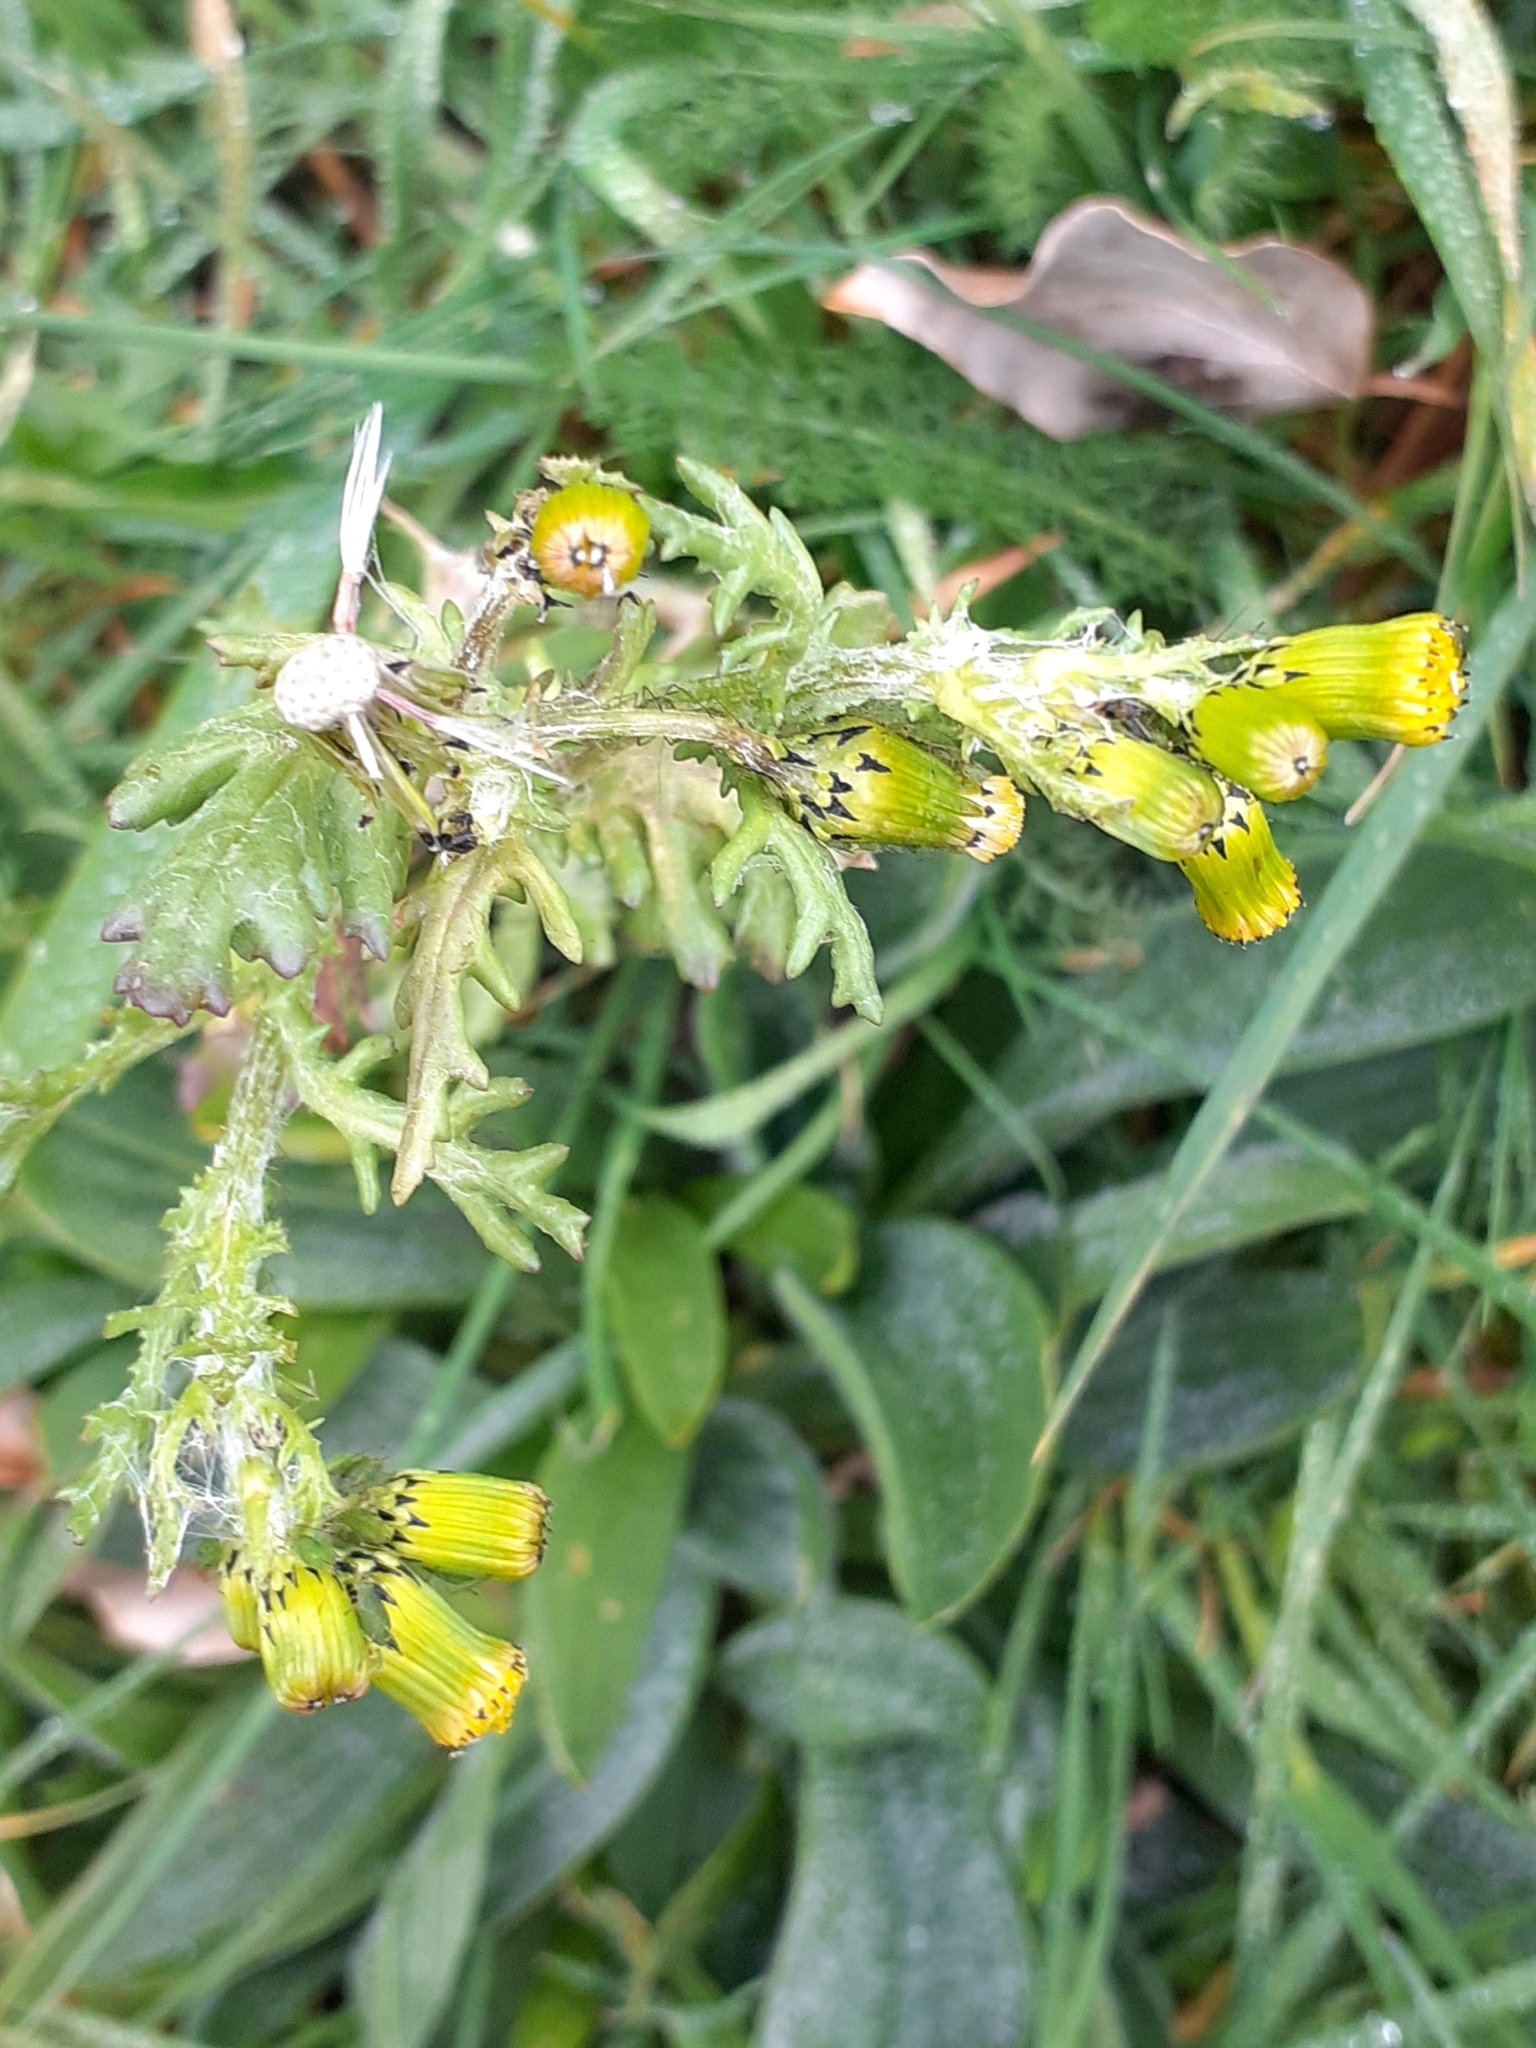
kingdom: Plantae
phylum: Tracheophyta
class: Magnoliopsida
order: Asterales
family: Asteraceae
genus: Senecio
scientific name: Senecio vulgaris
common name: Old-man-in-the-spring
